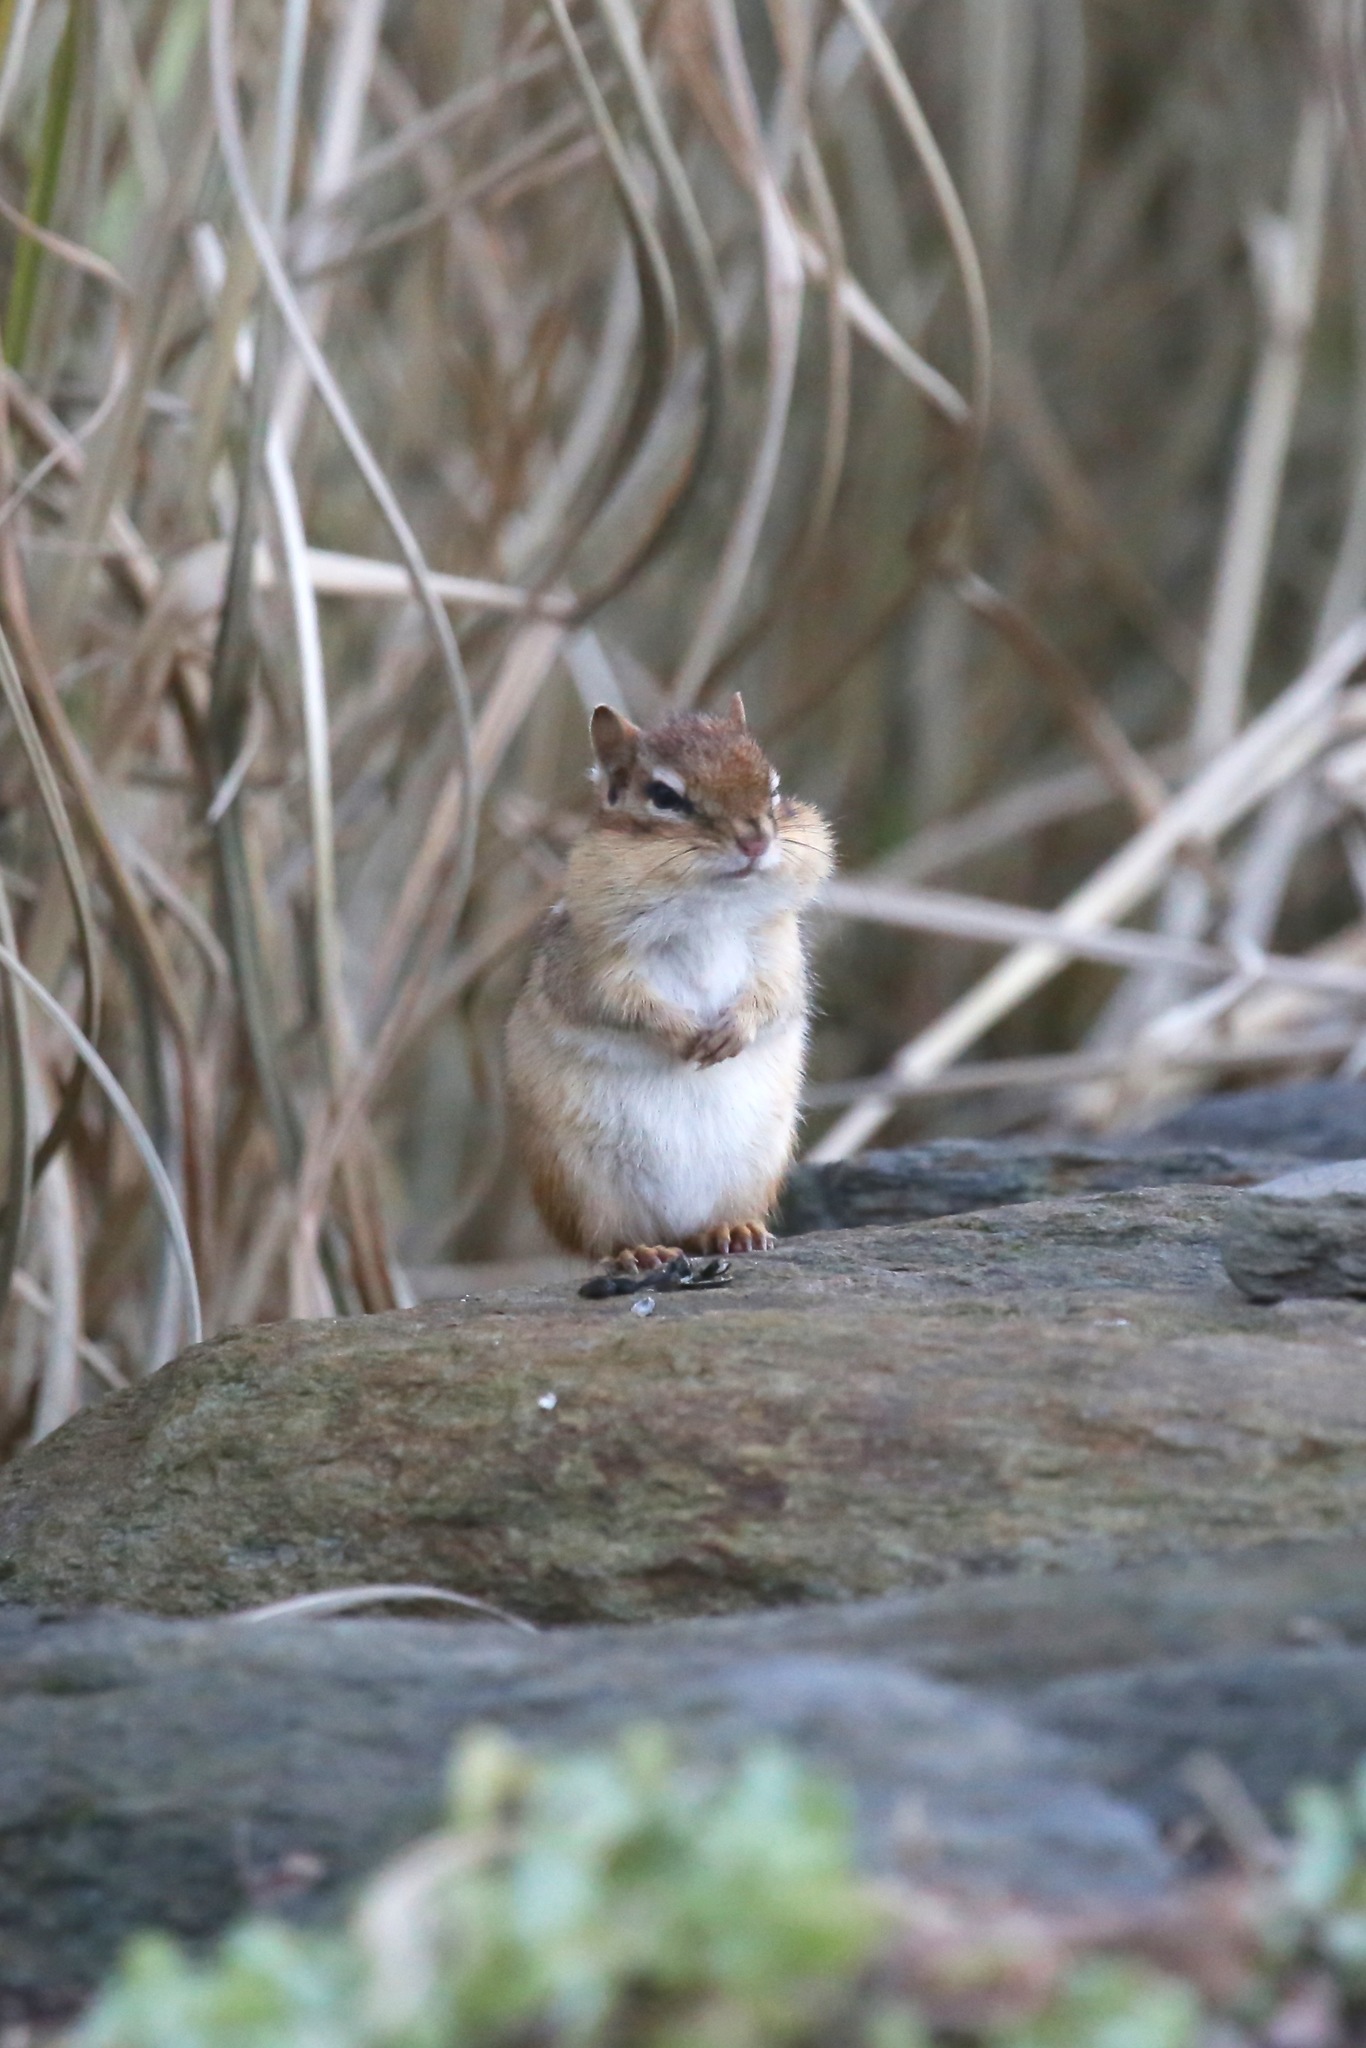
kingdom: Animalia
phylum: Chordata
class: Mammalia
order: Rodentia
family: Sciuridae
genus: Tamias
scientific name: Tamias striatus
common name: Eastern chipmunk
